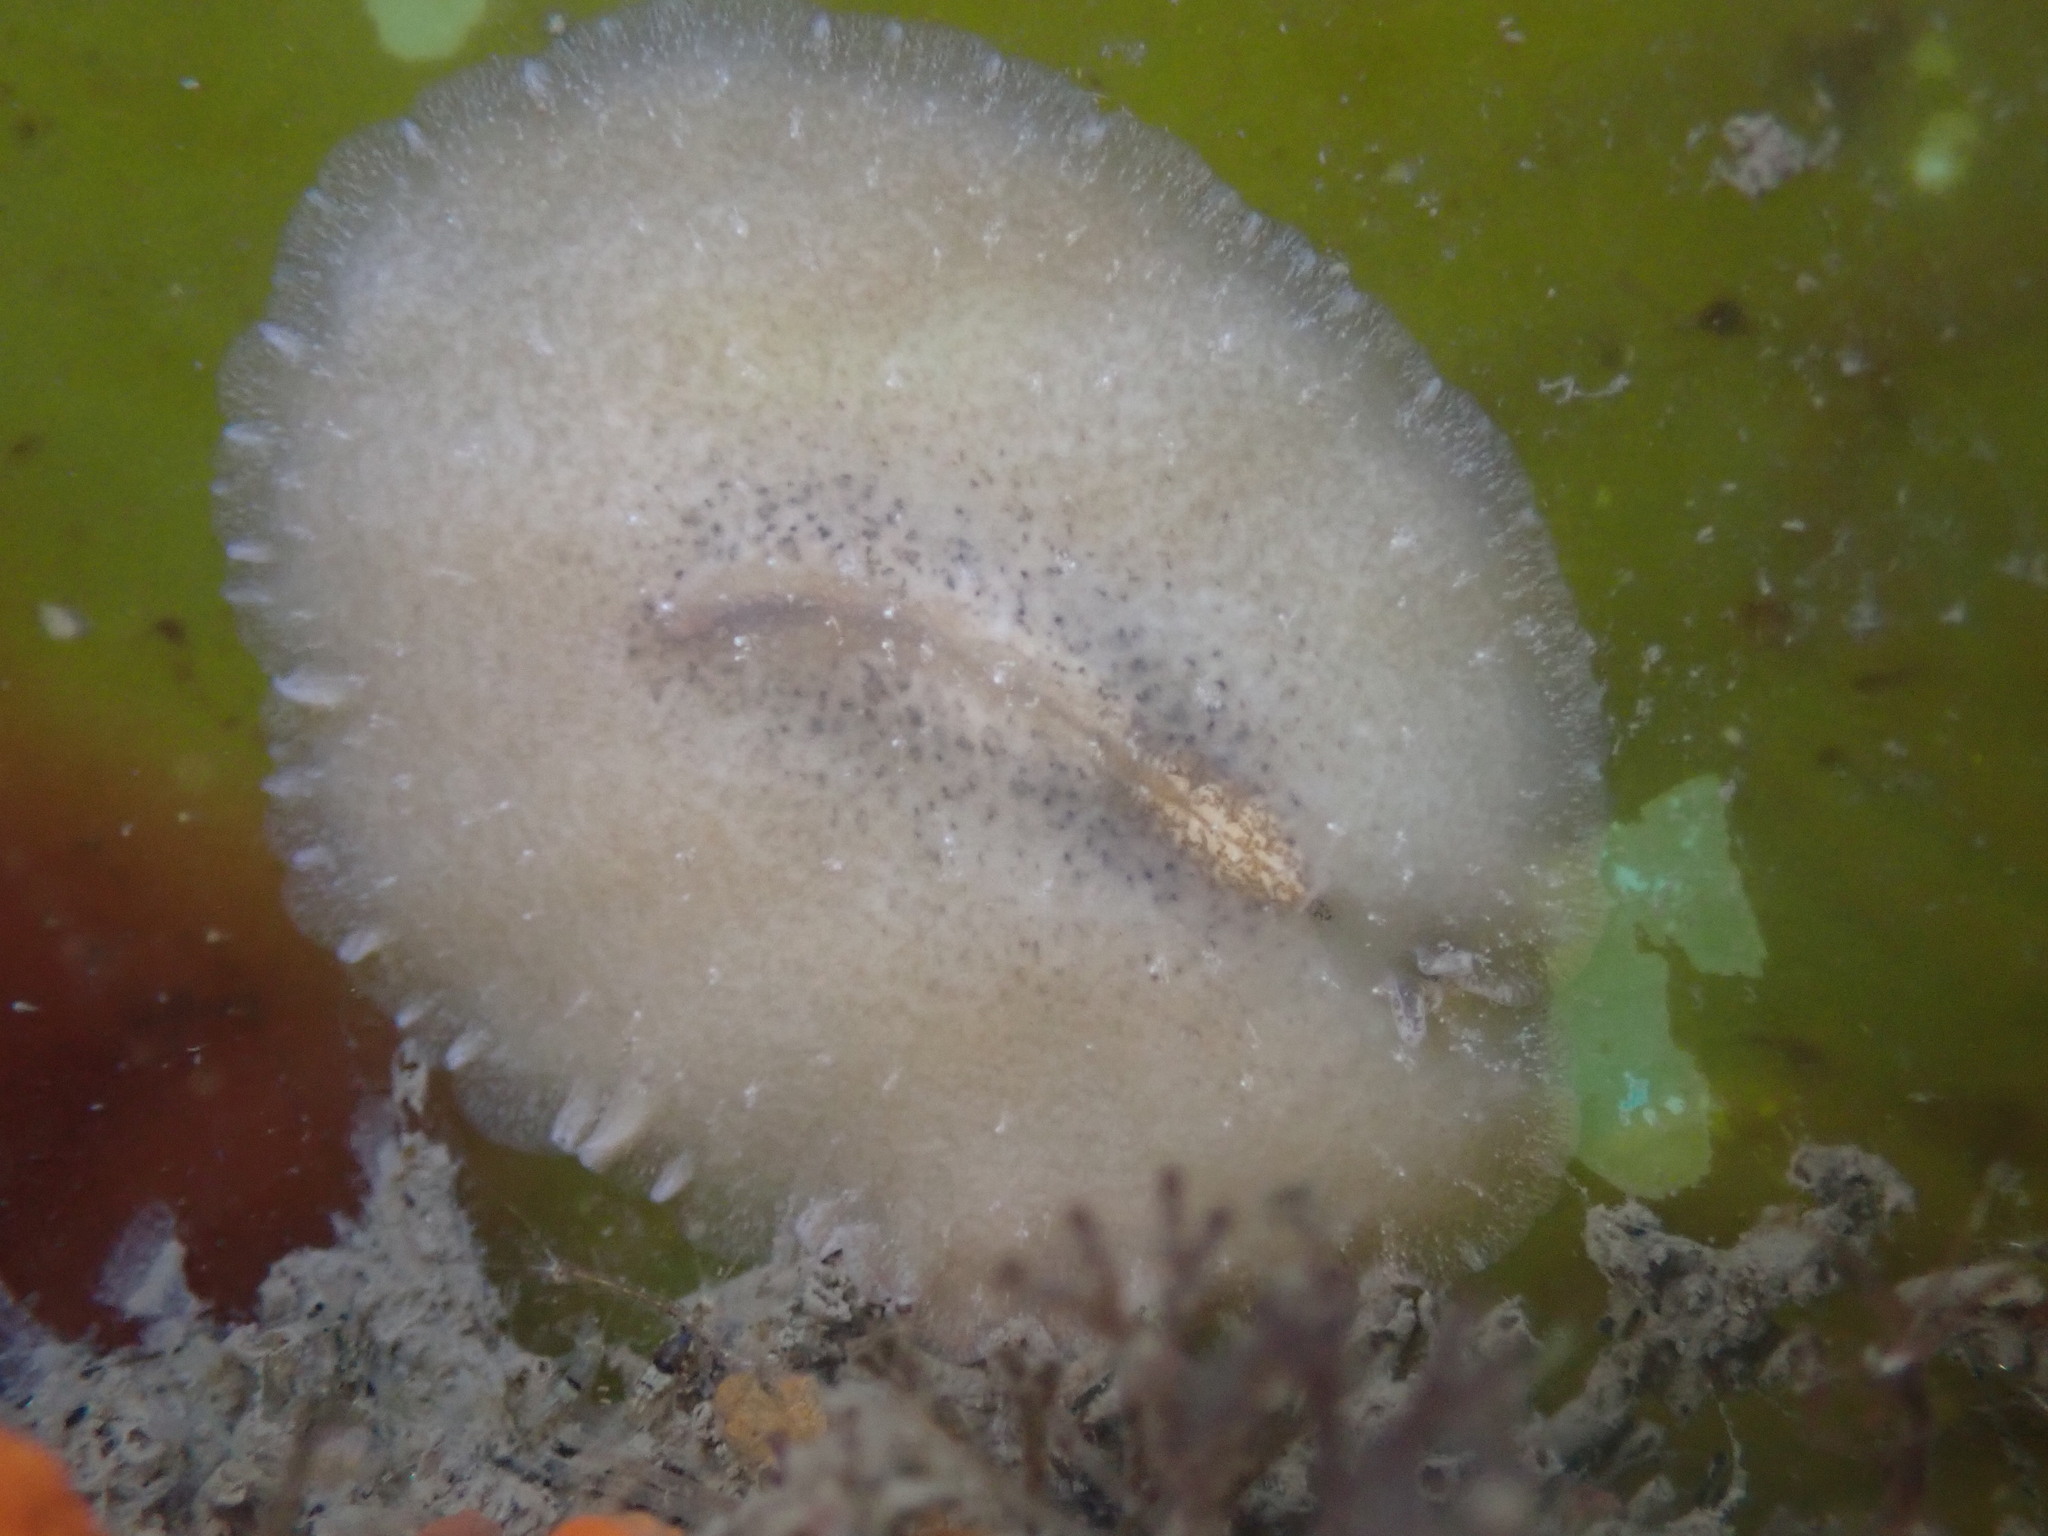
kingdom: Animalia
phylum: Platyhelminthes
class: Turbellaria
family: Pseudocerotidae
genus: Pseudoceros
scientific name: Pseudoceros canadensis
